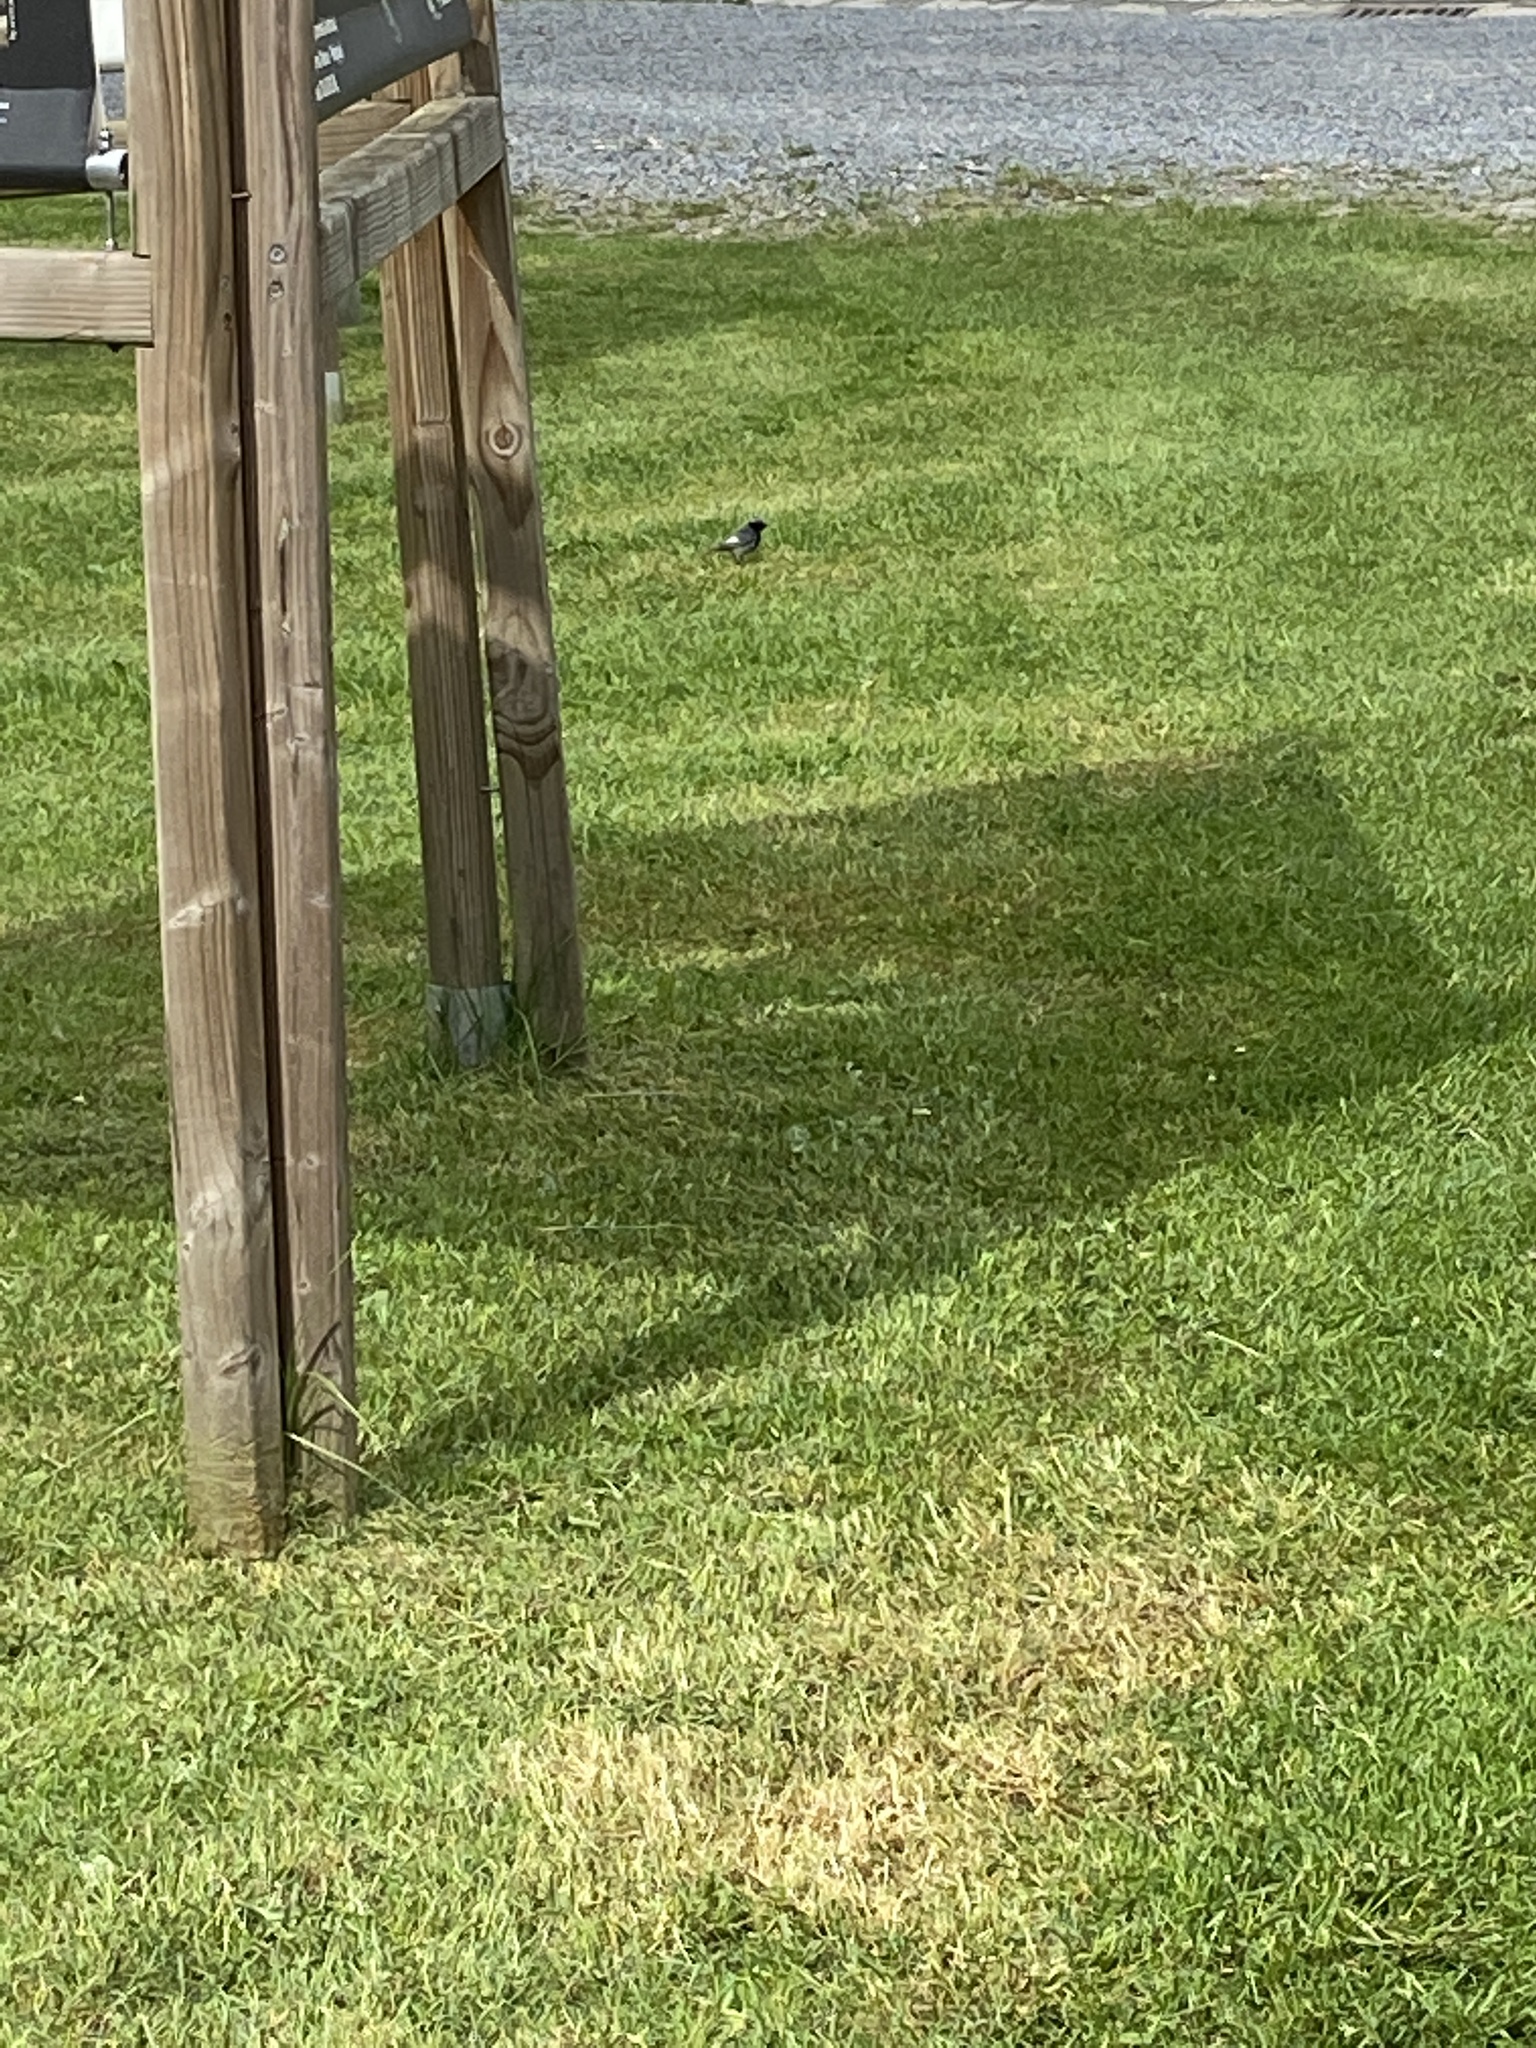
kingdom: Animalia
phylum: Chordata
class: Aves
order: Passeriformes
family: Muscicapidae
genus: Phoenicurus
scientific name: Phoenicurus ochruros
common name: Black redstart
